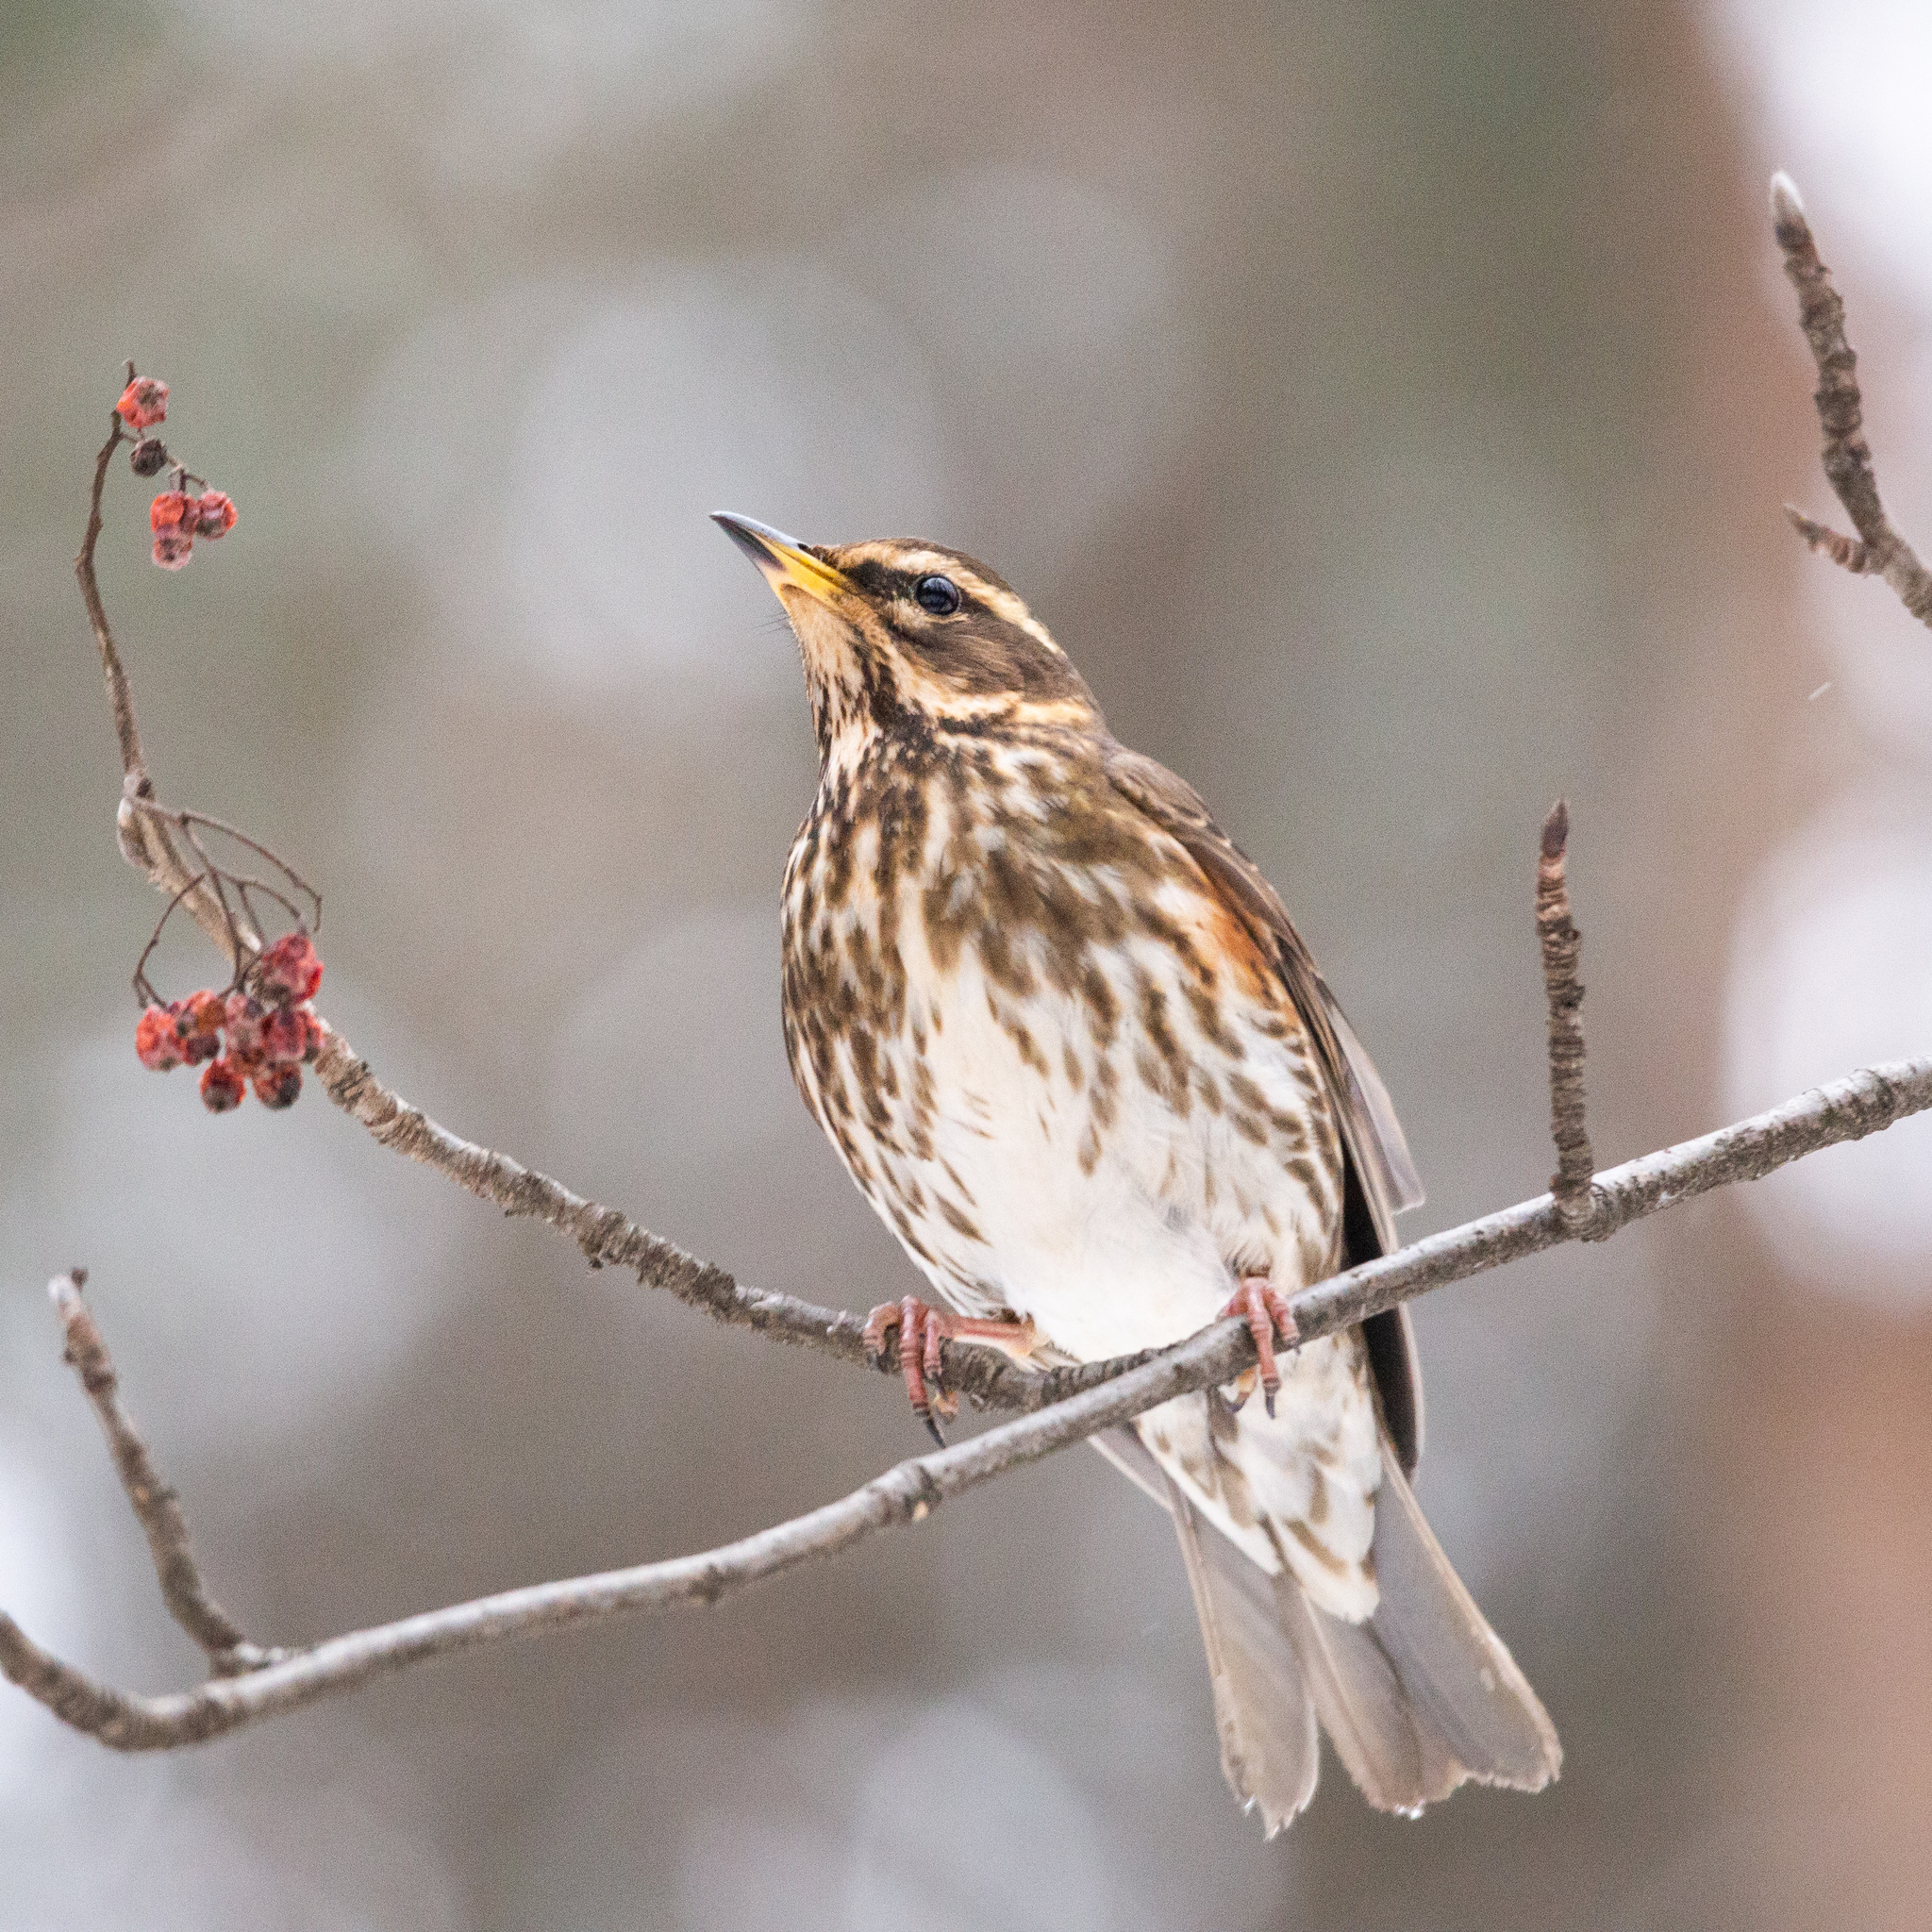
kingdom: Animalia
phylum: Chordata
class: Aves
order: Passeriformes
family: Turdidae
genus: Turdus
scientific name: Turdus iliacus
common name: Redwing
